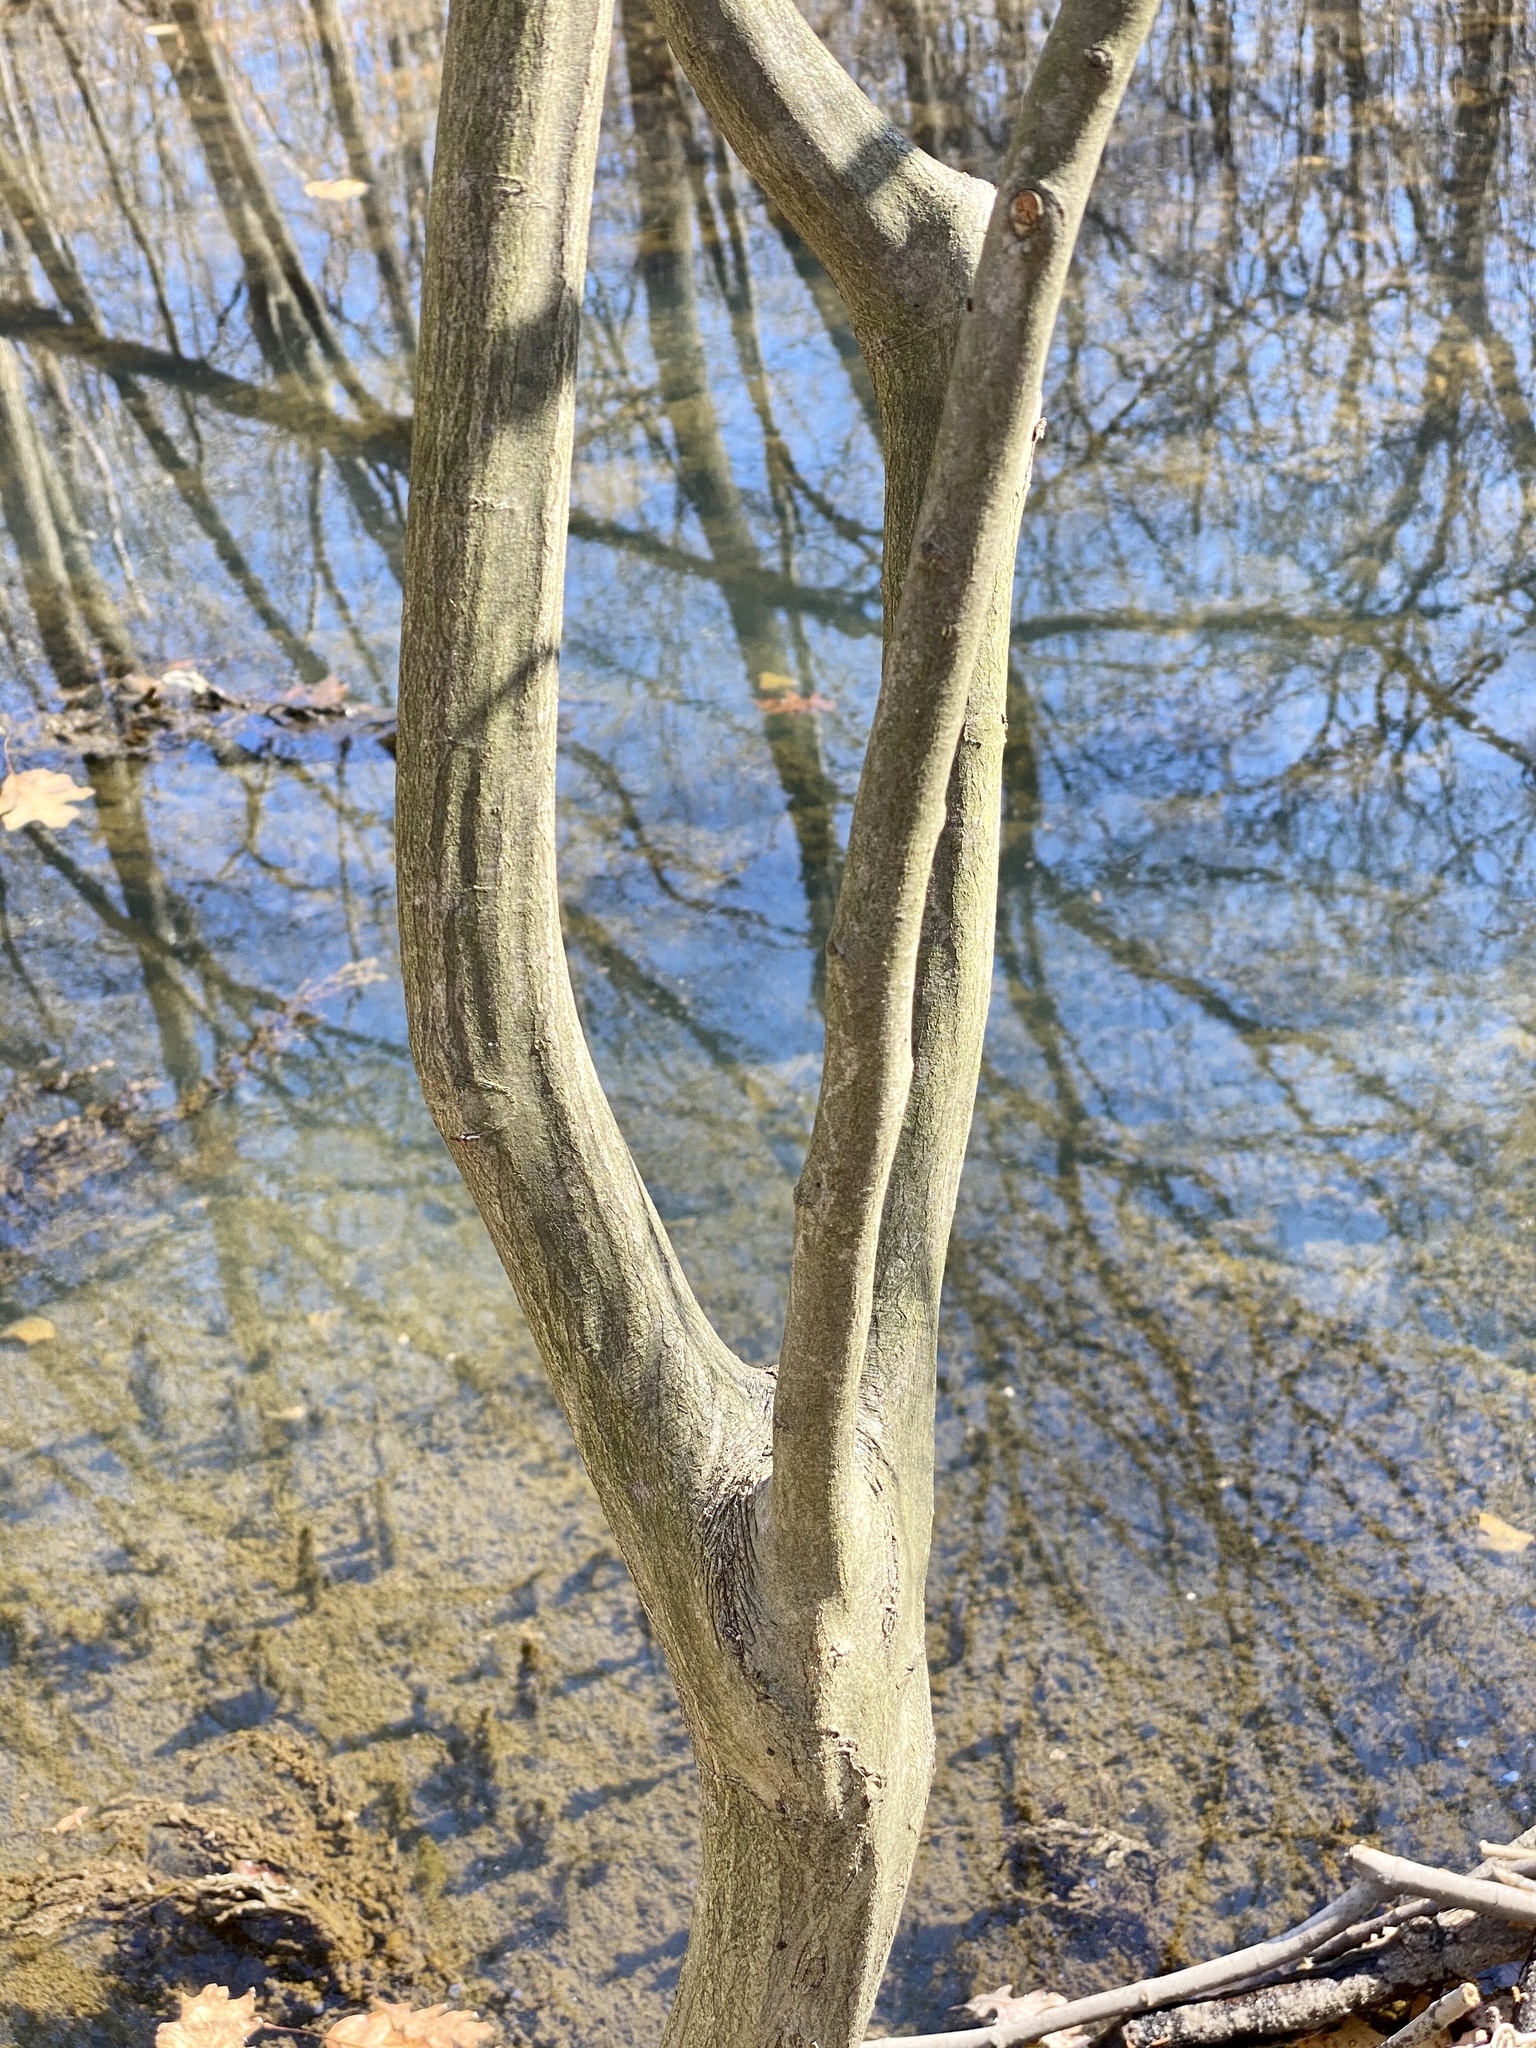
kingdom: Plantae
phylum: Tracheophyta
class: Magnoliopsida
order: Fagales
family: Betulaceae
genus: Carpinus
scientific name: Carpinus caroliniana
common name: American hornbeam
